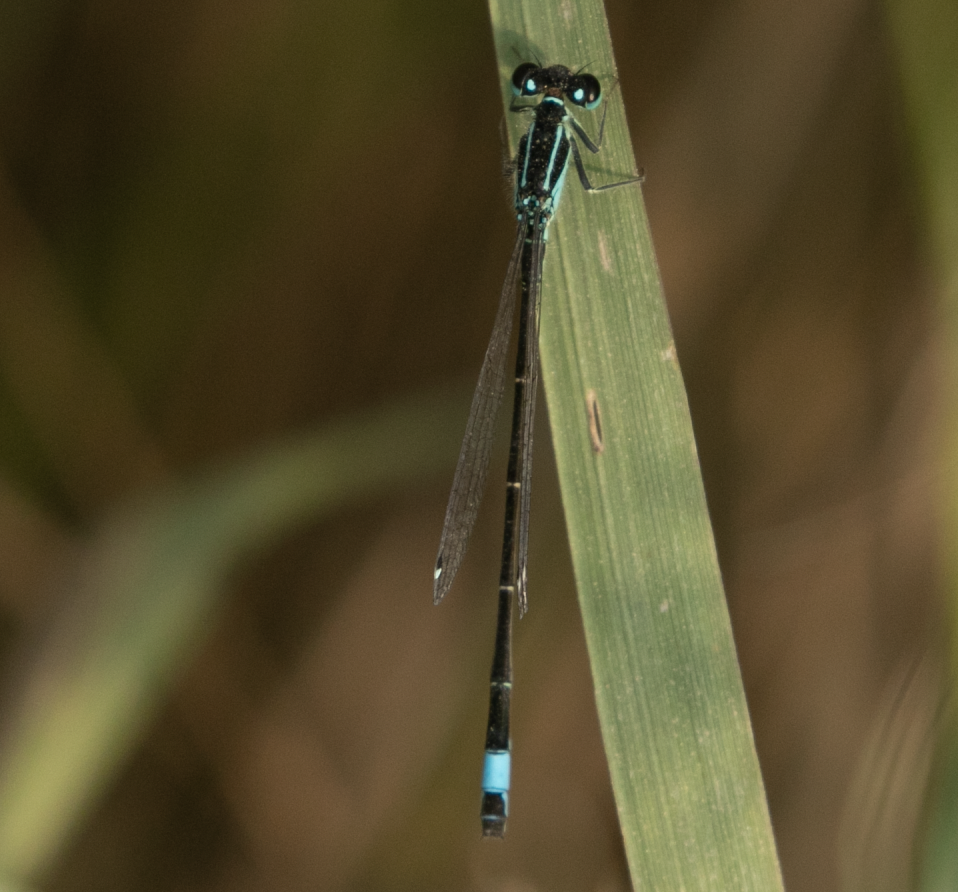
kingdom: Animalia
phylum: Arthropoda
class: Insecta
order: Odonata
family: Coenagrionidae
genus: Ischnura
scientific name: Ischnura elegans
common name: Blue-tailed damselfly
